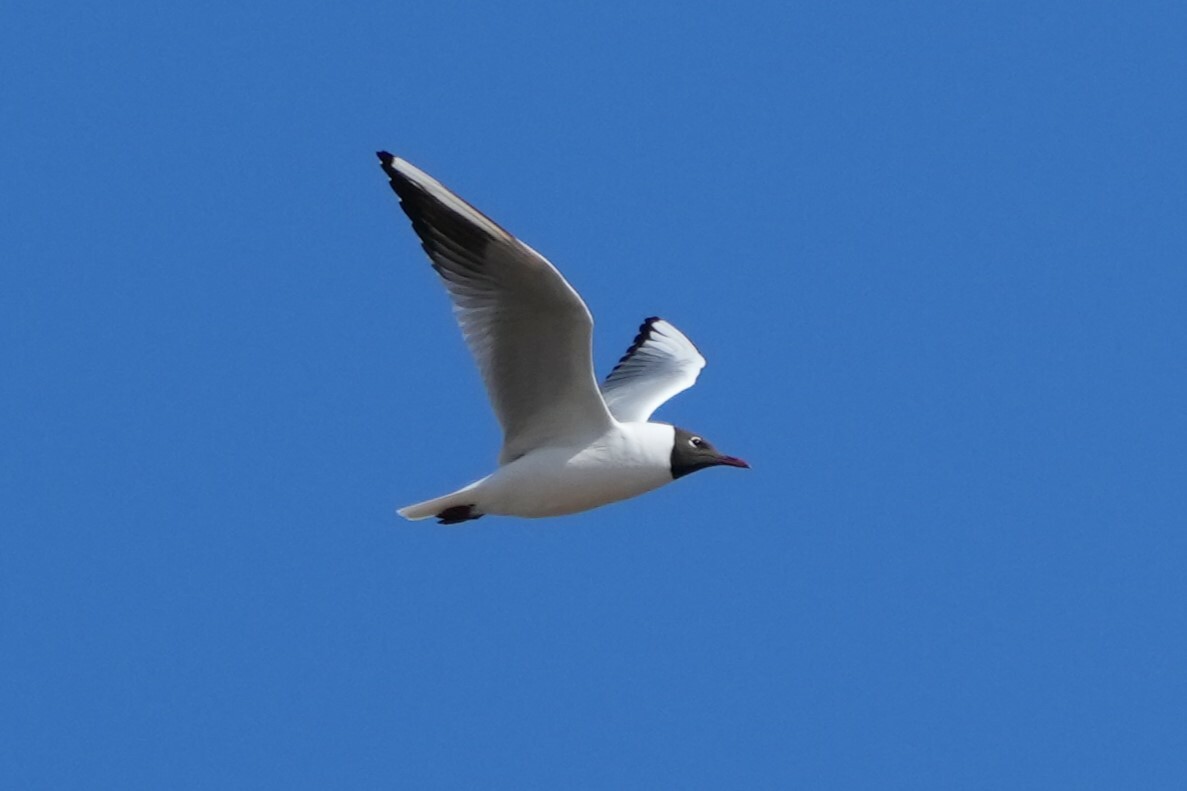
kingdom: Animalia
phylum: Chordata
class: Aves
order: Charadriiformes
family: Laridae
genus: Chroicocephalus
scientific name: Chroicocephalus ridibundus
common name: Black-headed gull
